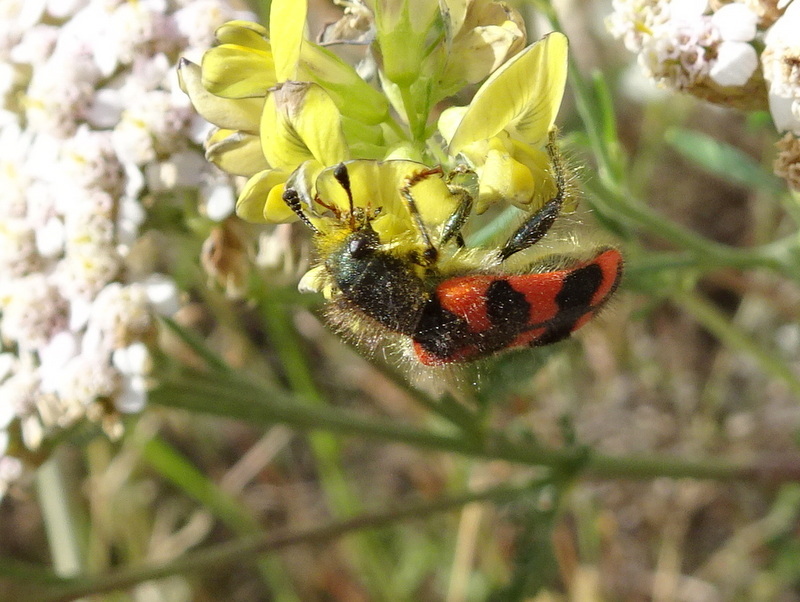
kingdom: Animalia
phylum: Arthropoda
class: Insecta
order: Coleoptera
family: Cleridae
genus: Trichodes
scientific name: Trichodes alvearius
